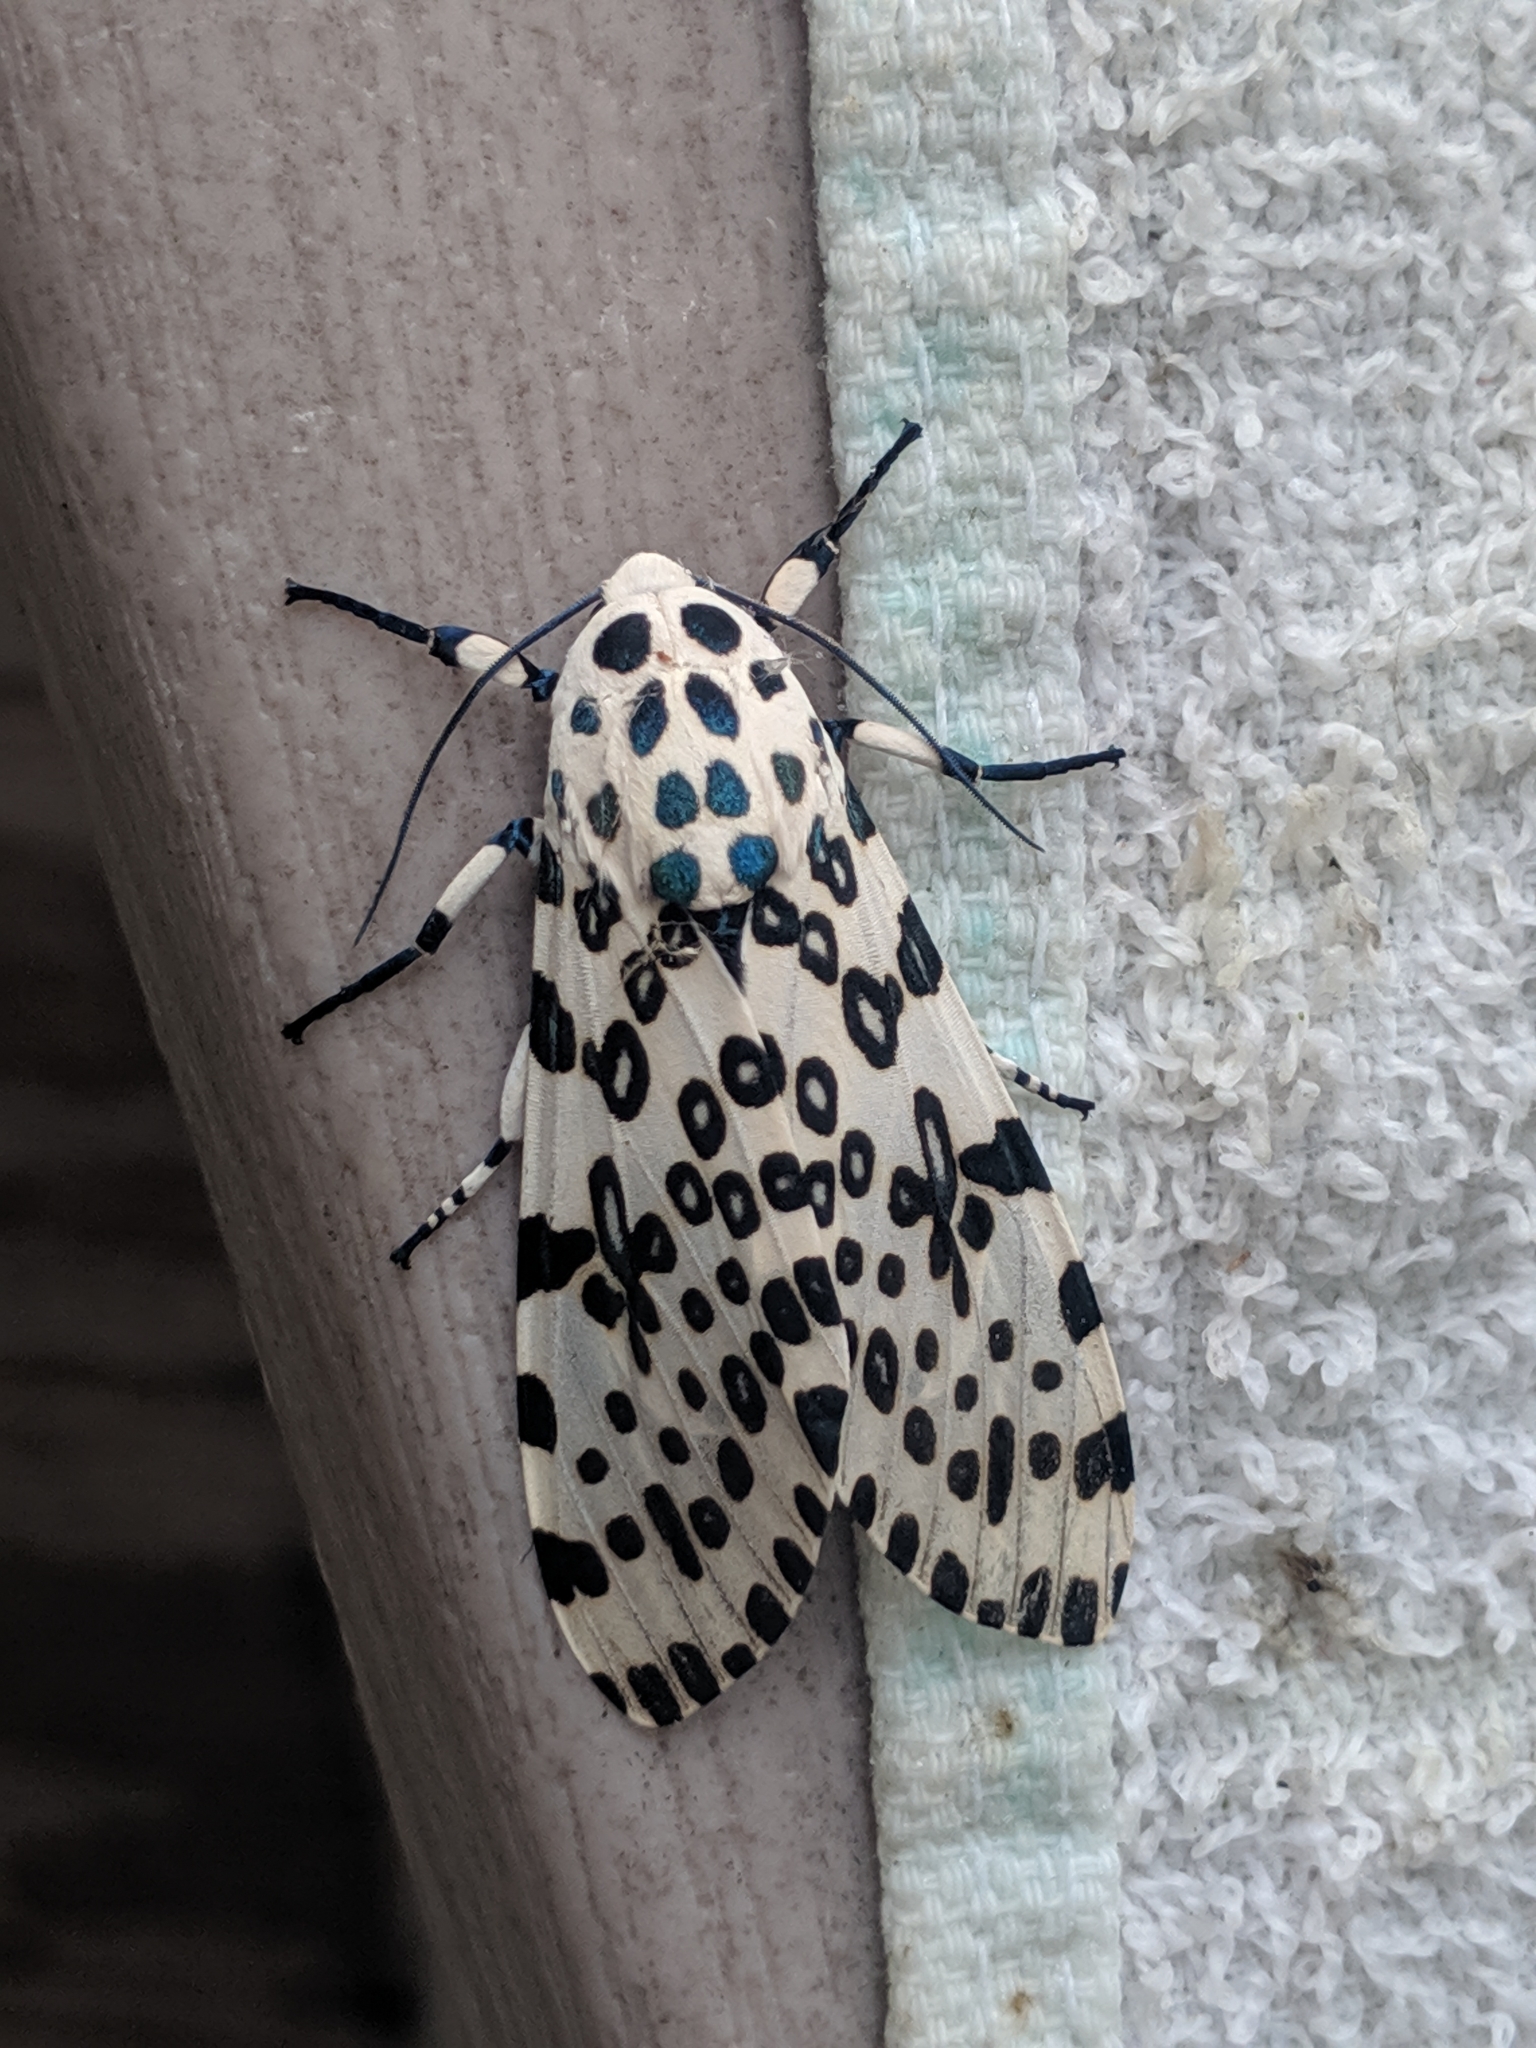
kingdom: Animalia
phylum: Arthropoda
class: Insecta
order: Lepidoptera
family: Erebidae
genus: Hypercompe
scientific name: Hypercompe scribonia
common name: Giant leopard moth
